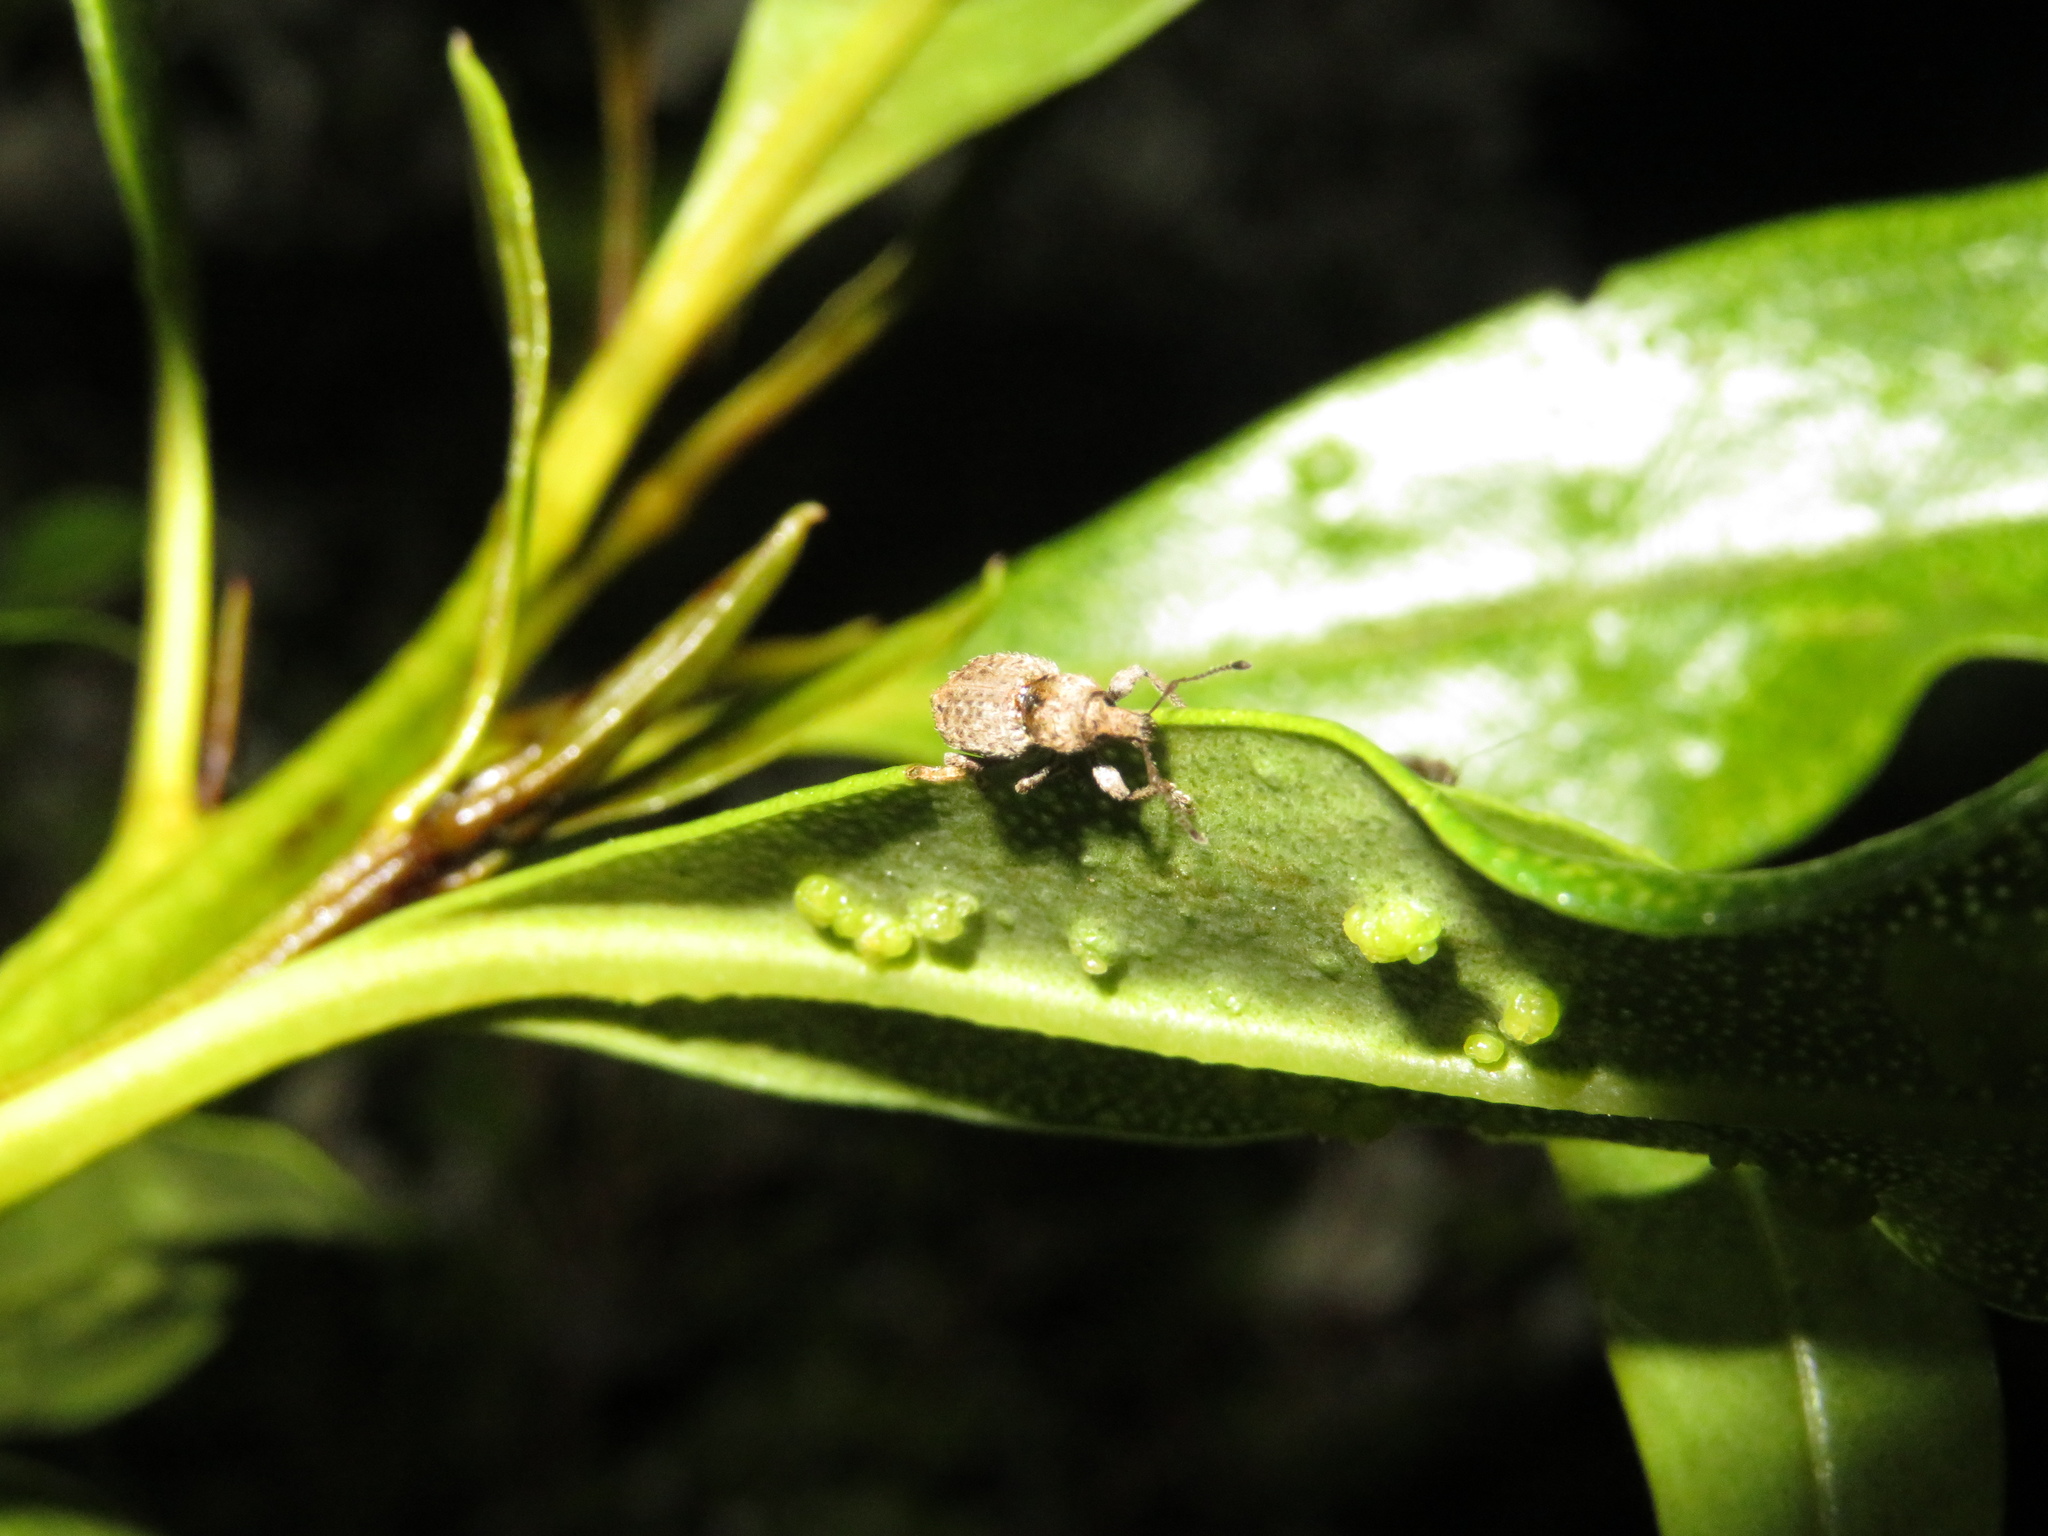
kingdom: Animalia
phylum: Arthropoda
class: Insecta
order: Coleoptera
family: Curculionidae
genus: Chalepistes
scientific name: Chalepistes compressus
